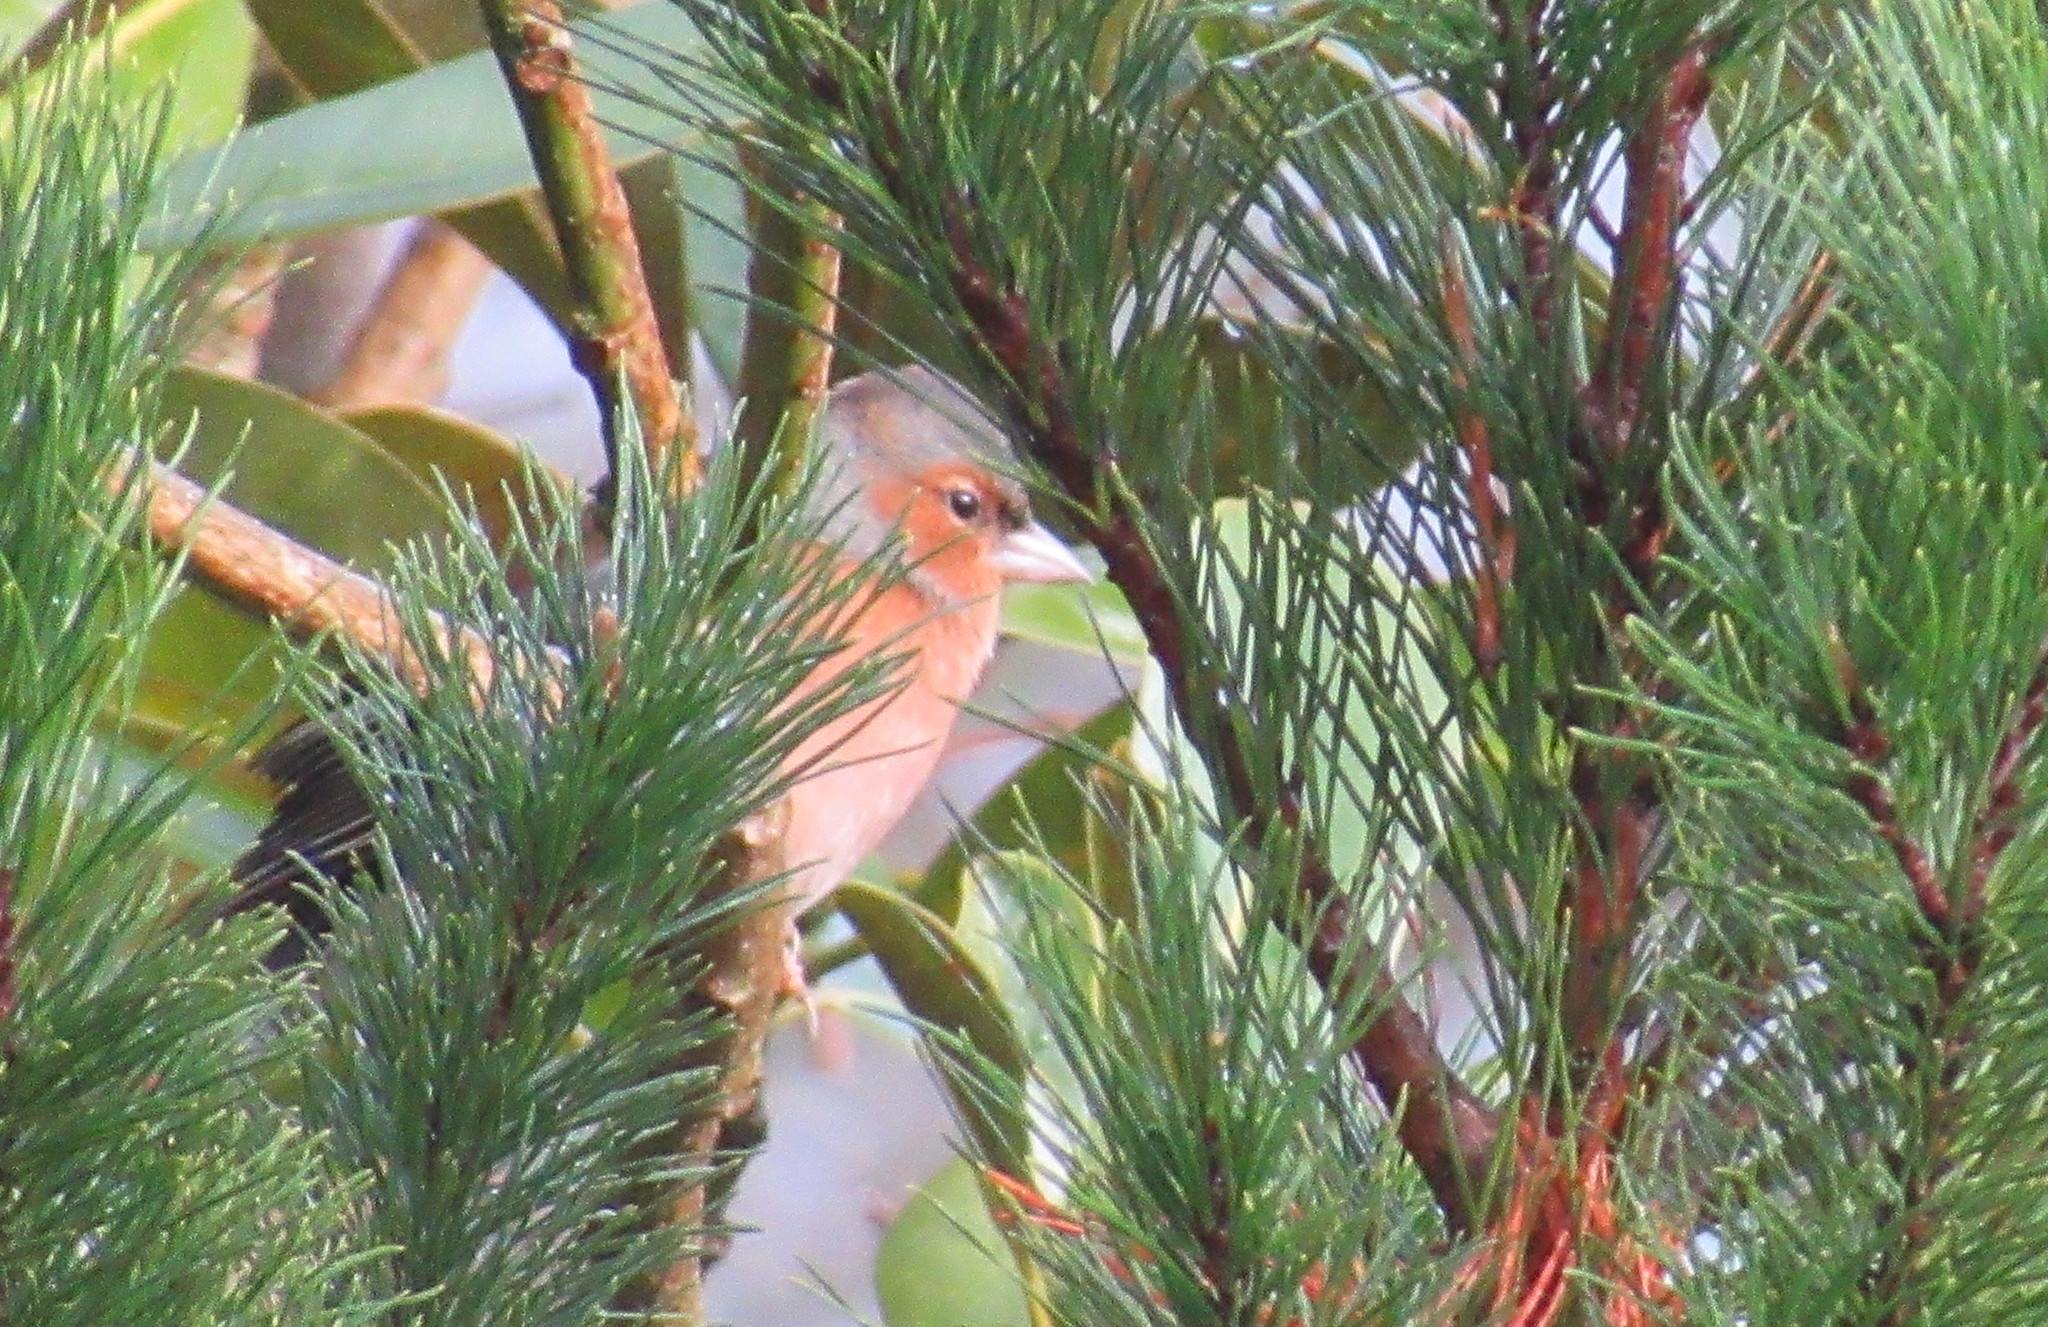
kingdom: Animalia
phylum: Chordata
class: Aves
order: Passeriformes
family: Fringillidae
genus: Fringilla
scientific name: Fringilla coelebs
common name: Common chaffinch
